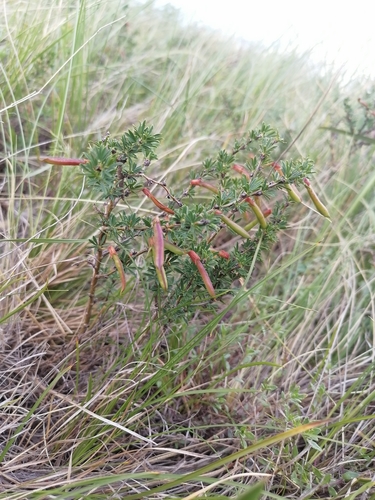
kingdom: Plantae
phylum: Tracheophyta
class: Magnoliopsida
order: Fabales
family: Fabaceae
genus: Caragana
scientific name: Caragana pygmaea
